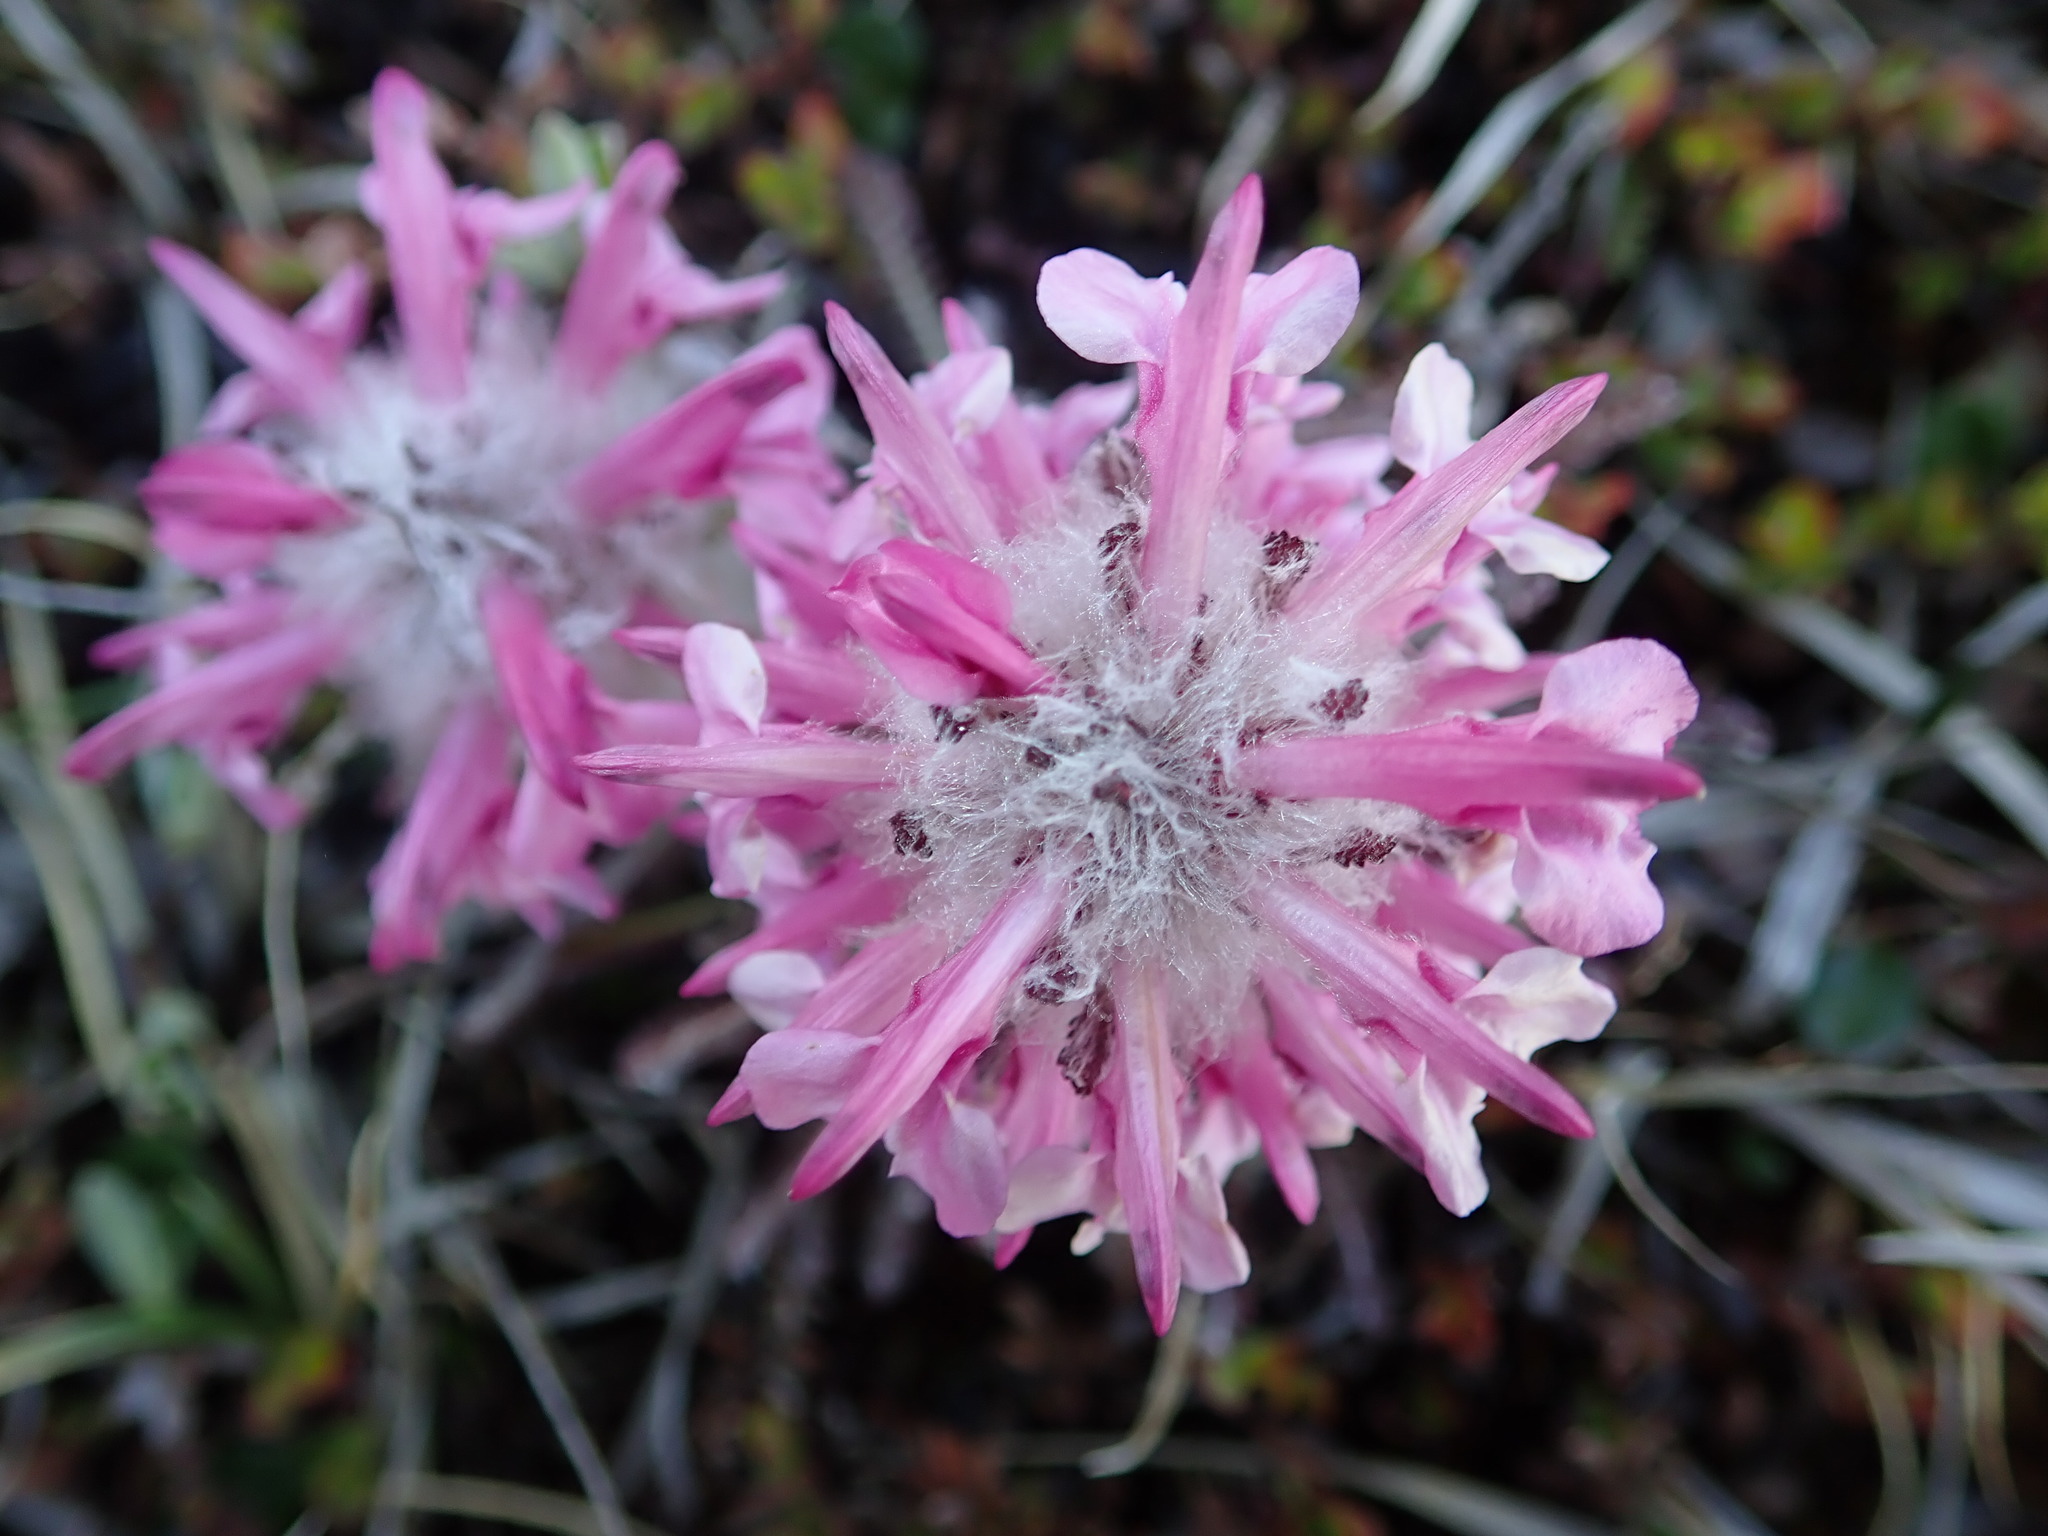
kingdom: Plantae
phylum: Tracheophyta
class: Magnoliopsida
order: Lamiales
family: Orobanchaceae
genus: Pedicularis
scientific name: Pedicularis lanata
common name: Woolly lousewort
